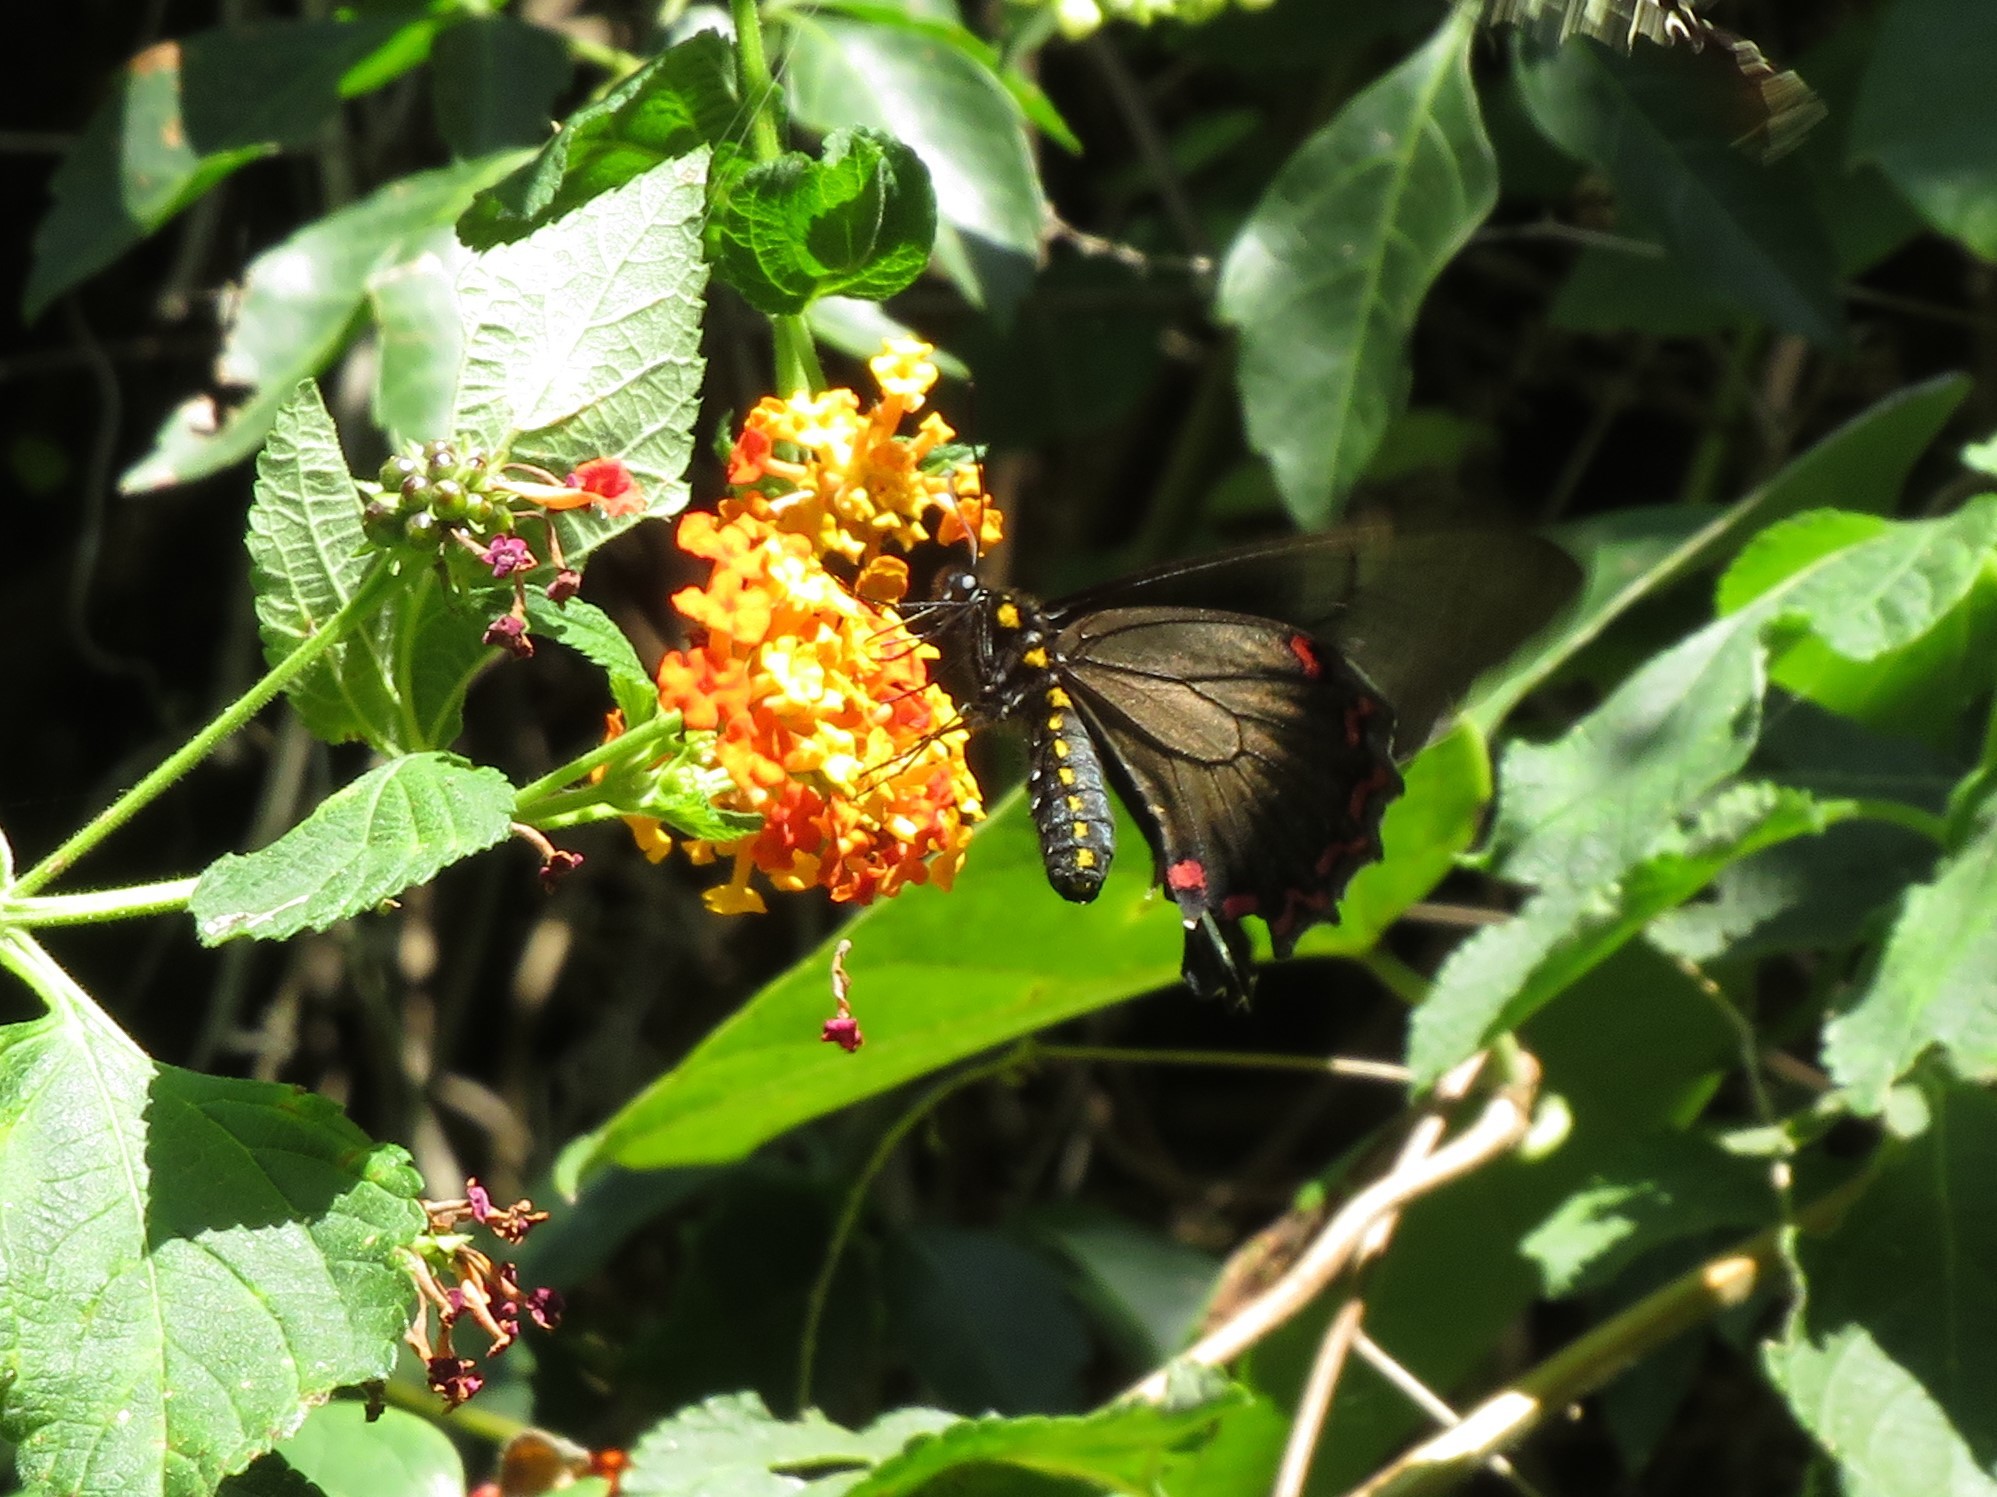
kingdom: Animalia
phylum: Arthropoda
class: Insecta
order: Lepidoptera
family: Papilionidae
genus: Battus
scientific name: Battus polystictus
